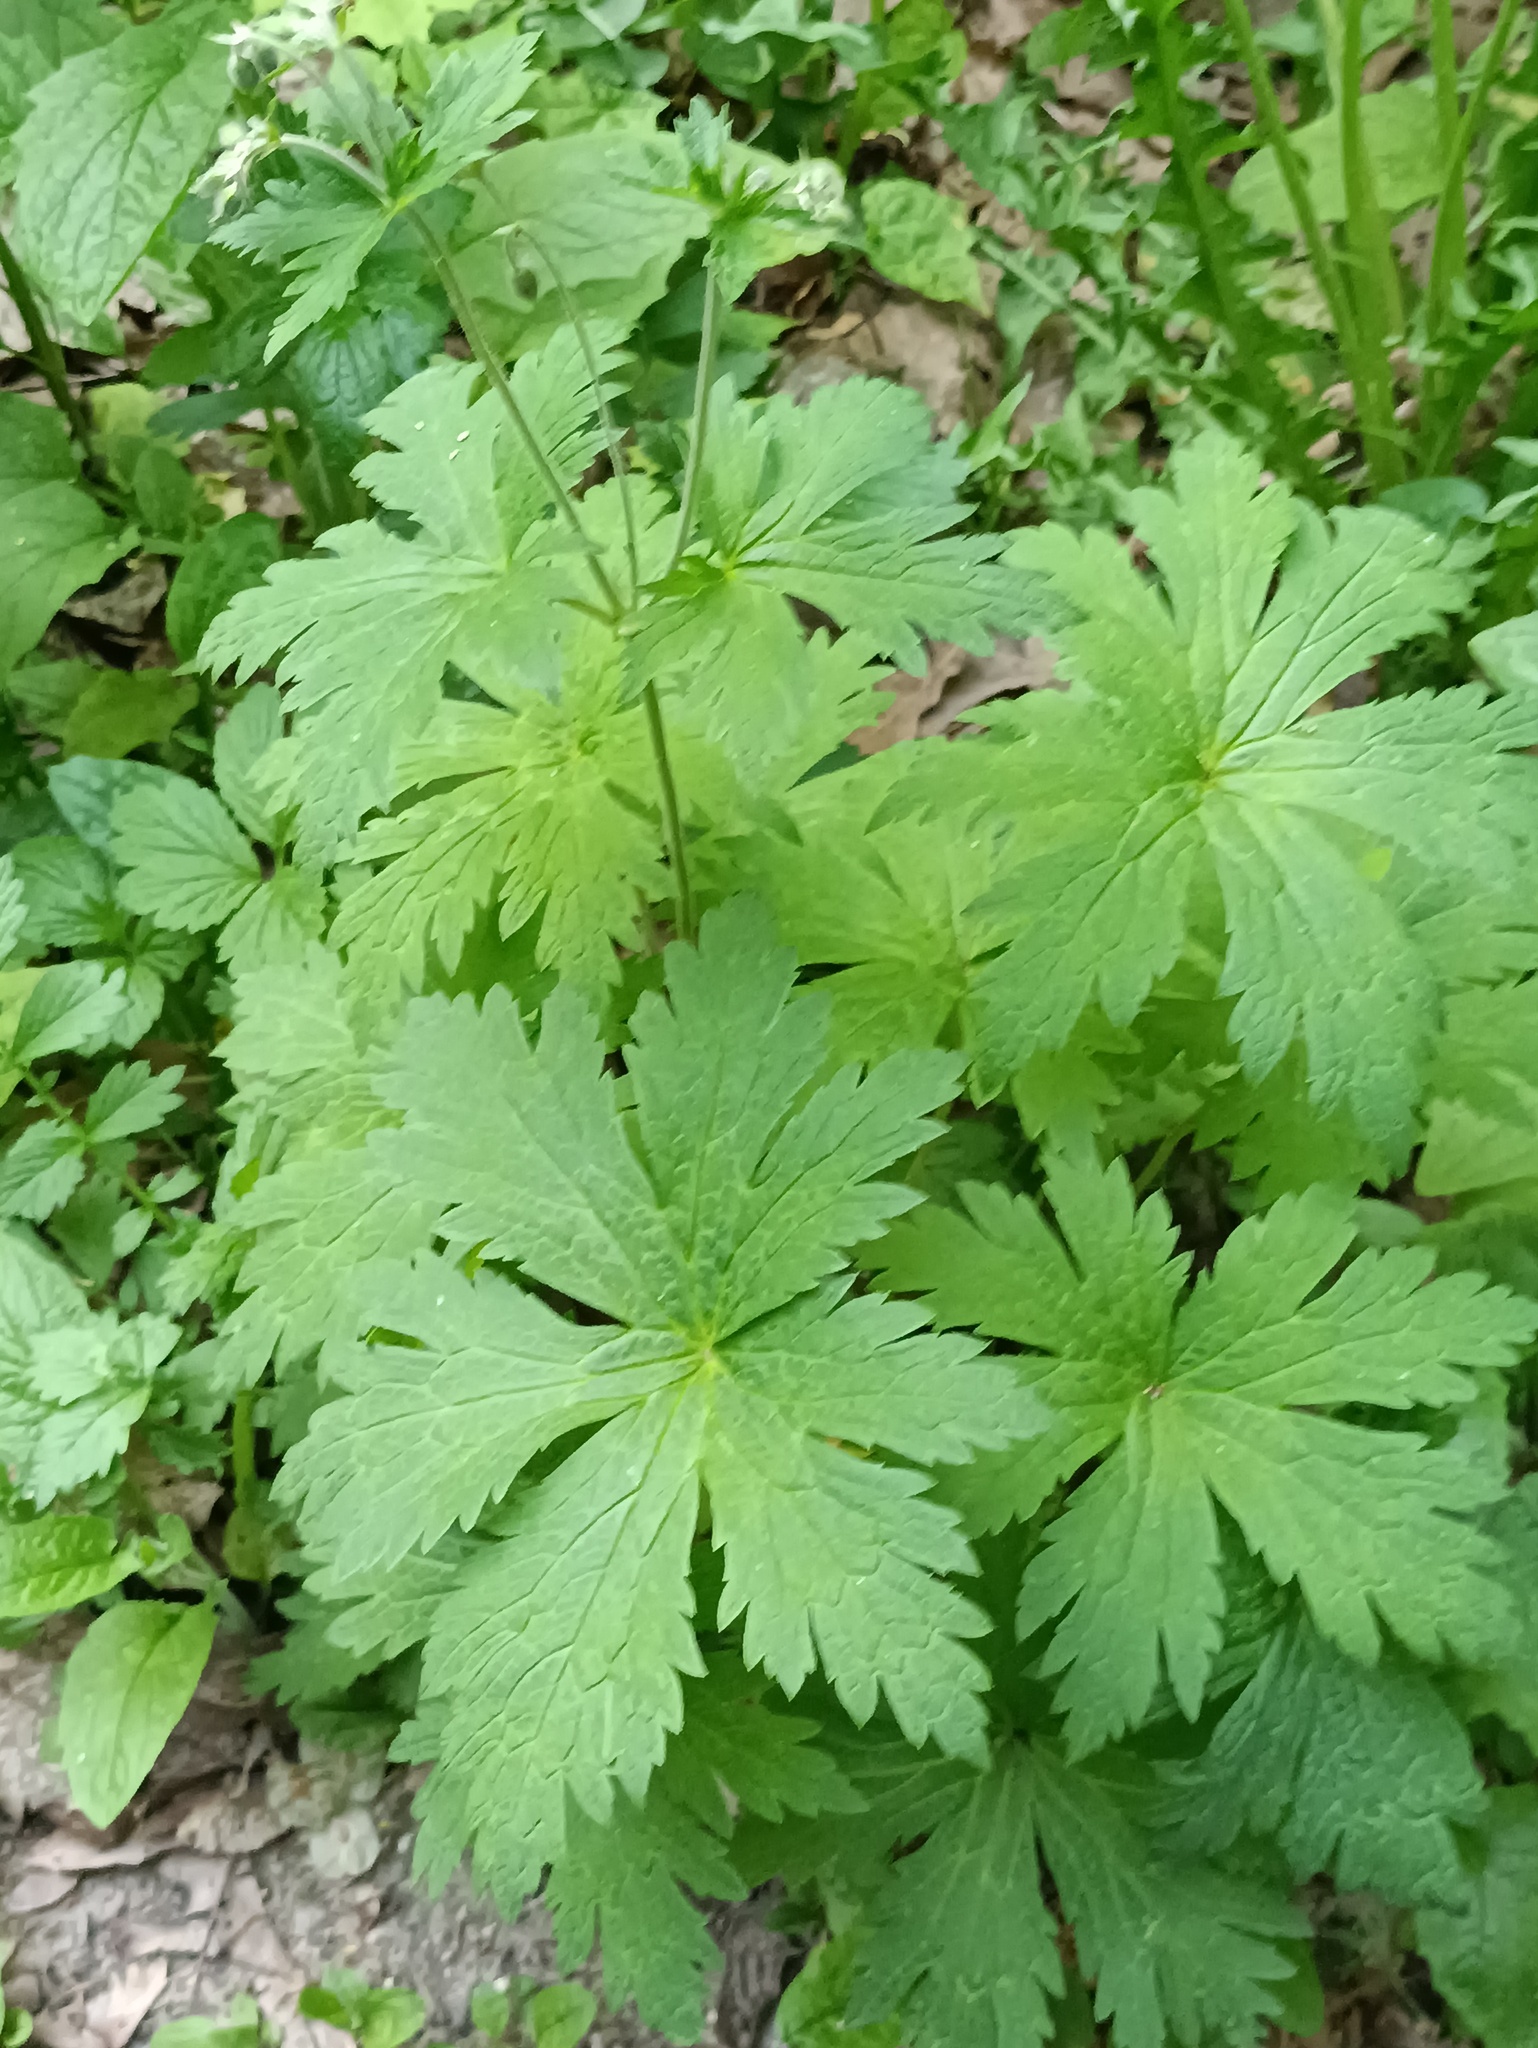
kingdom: Plantae
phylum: Tracheophyta
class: Magnoliopsida
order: Geraniales
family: Geraniaceae
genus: Geranium
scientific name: Geranium sylvaticum
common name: Wood crane's-bill
